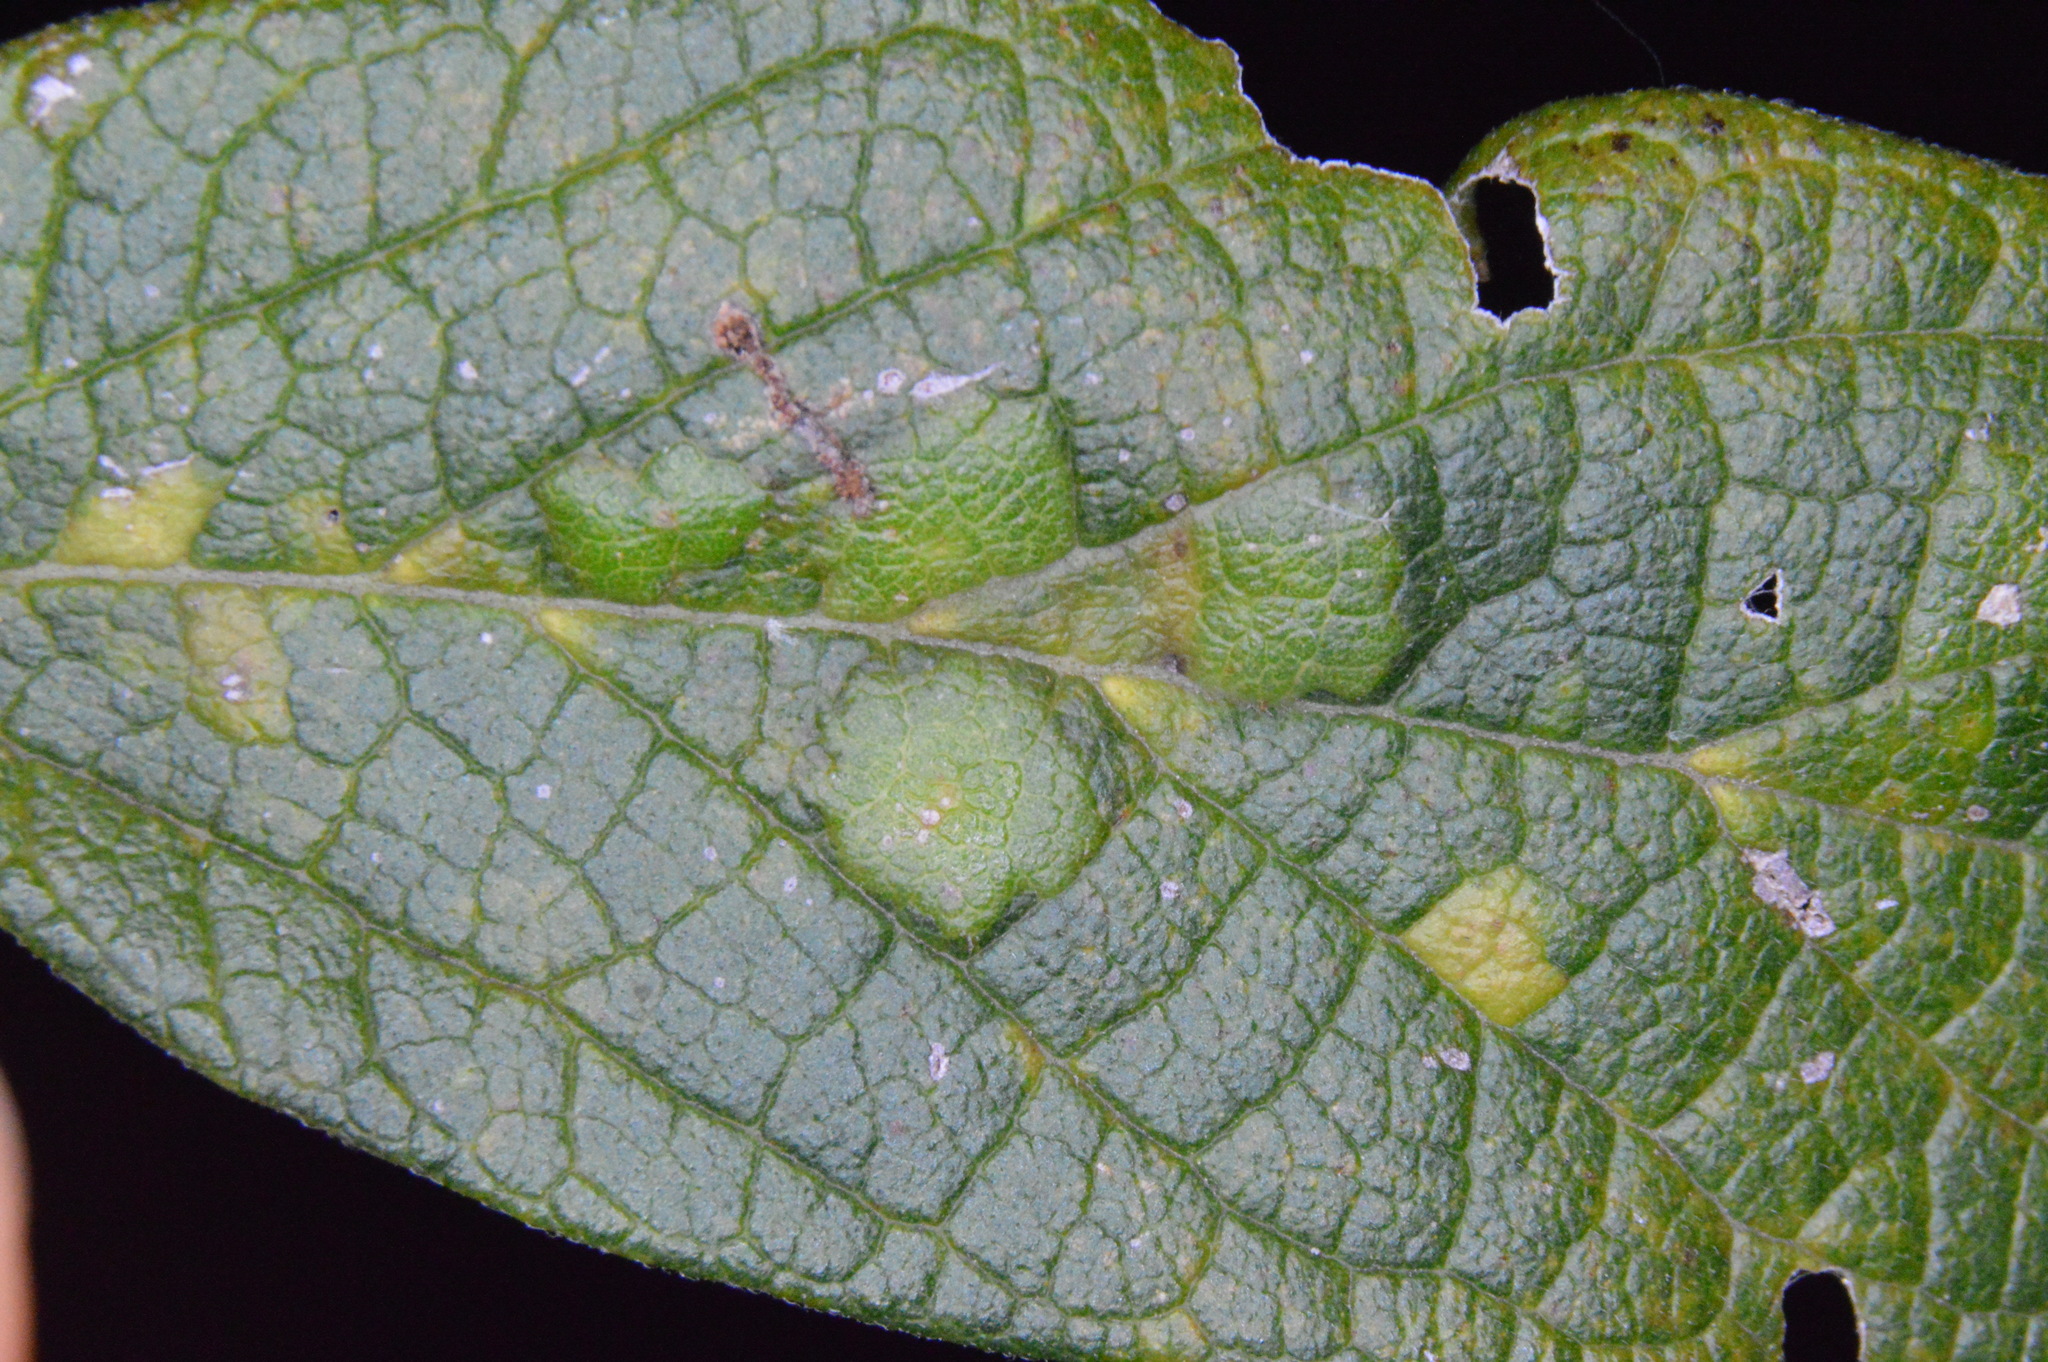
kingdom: Animalia
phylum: Arthropoda
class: Insecta
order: Hemiptera
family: Aphalaridae
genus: Pachypsylla
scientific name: Pachypsylla celtidisvesicula
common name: Hackberry blister gall psyllid
